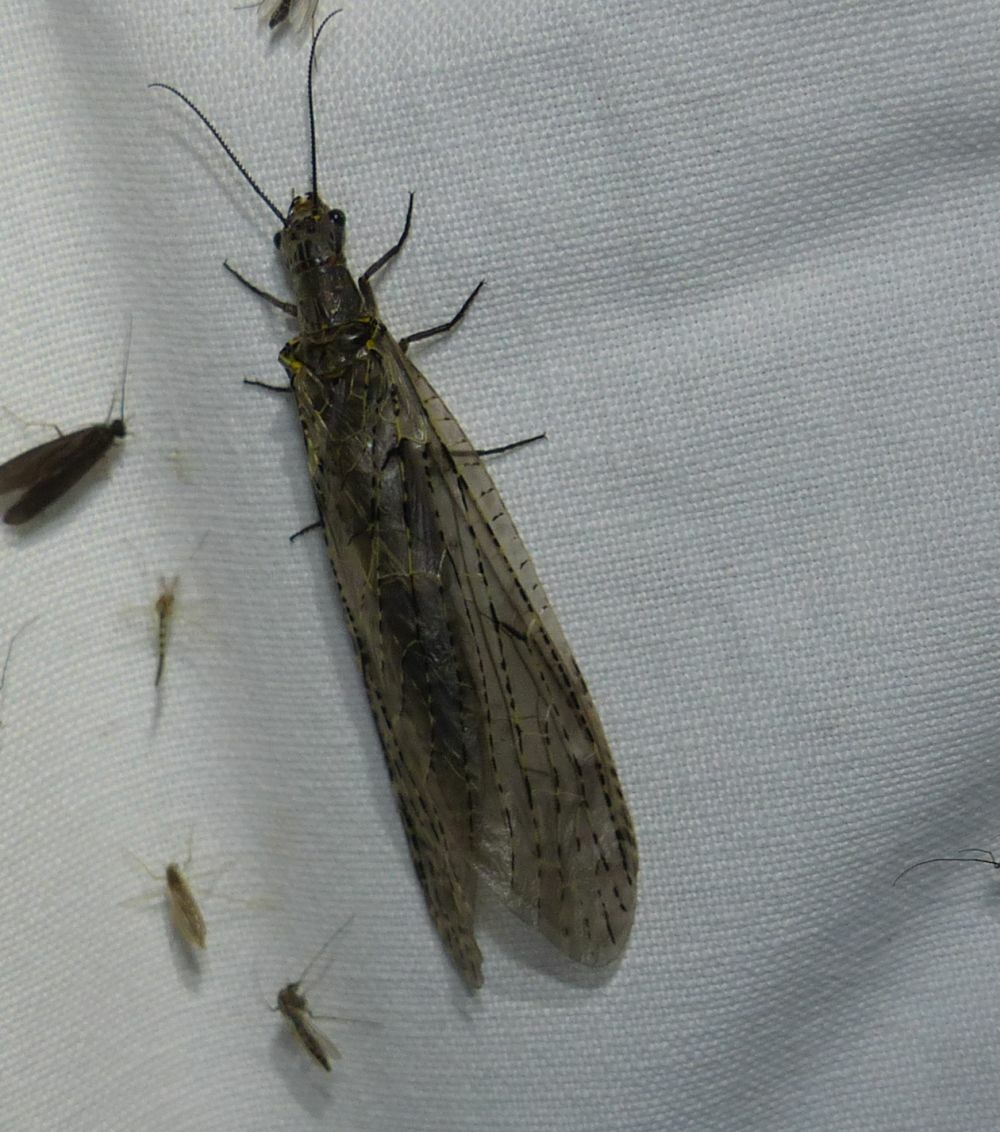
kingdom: Animalia
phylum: Arthropoda
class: Insecta
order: Megaloptera
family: Corydalidae
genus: Chauliodes
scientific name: Chauliodes rastricornis
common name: Spring fishfly
